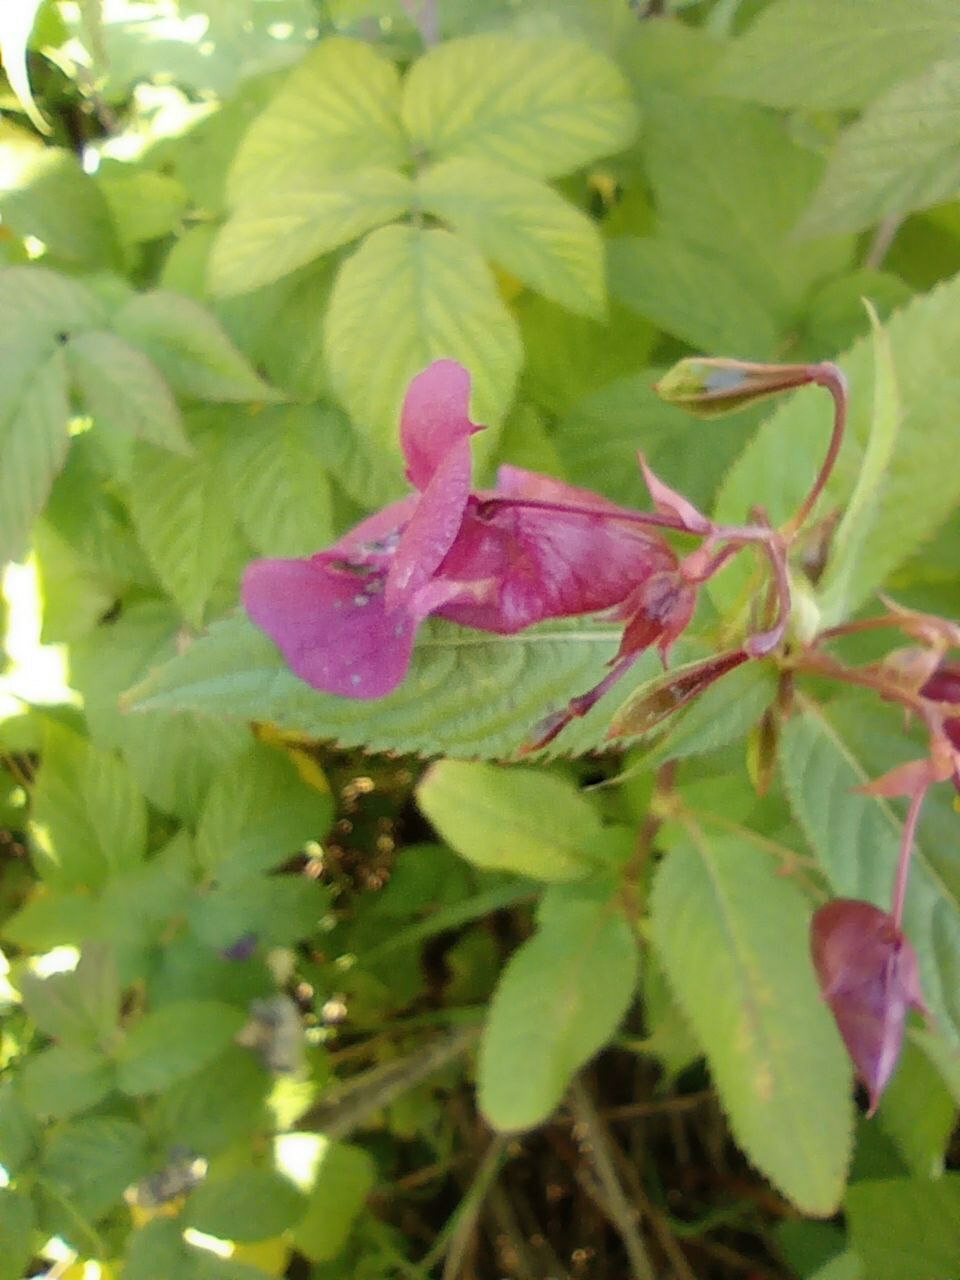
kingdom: Plantae
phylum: Tracheophyta
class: Magnoliopsida
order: Ericales
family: Balsaminaceae
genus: Impatiens
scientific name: Impatiens glandulifera
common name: Himalayan balsam
